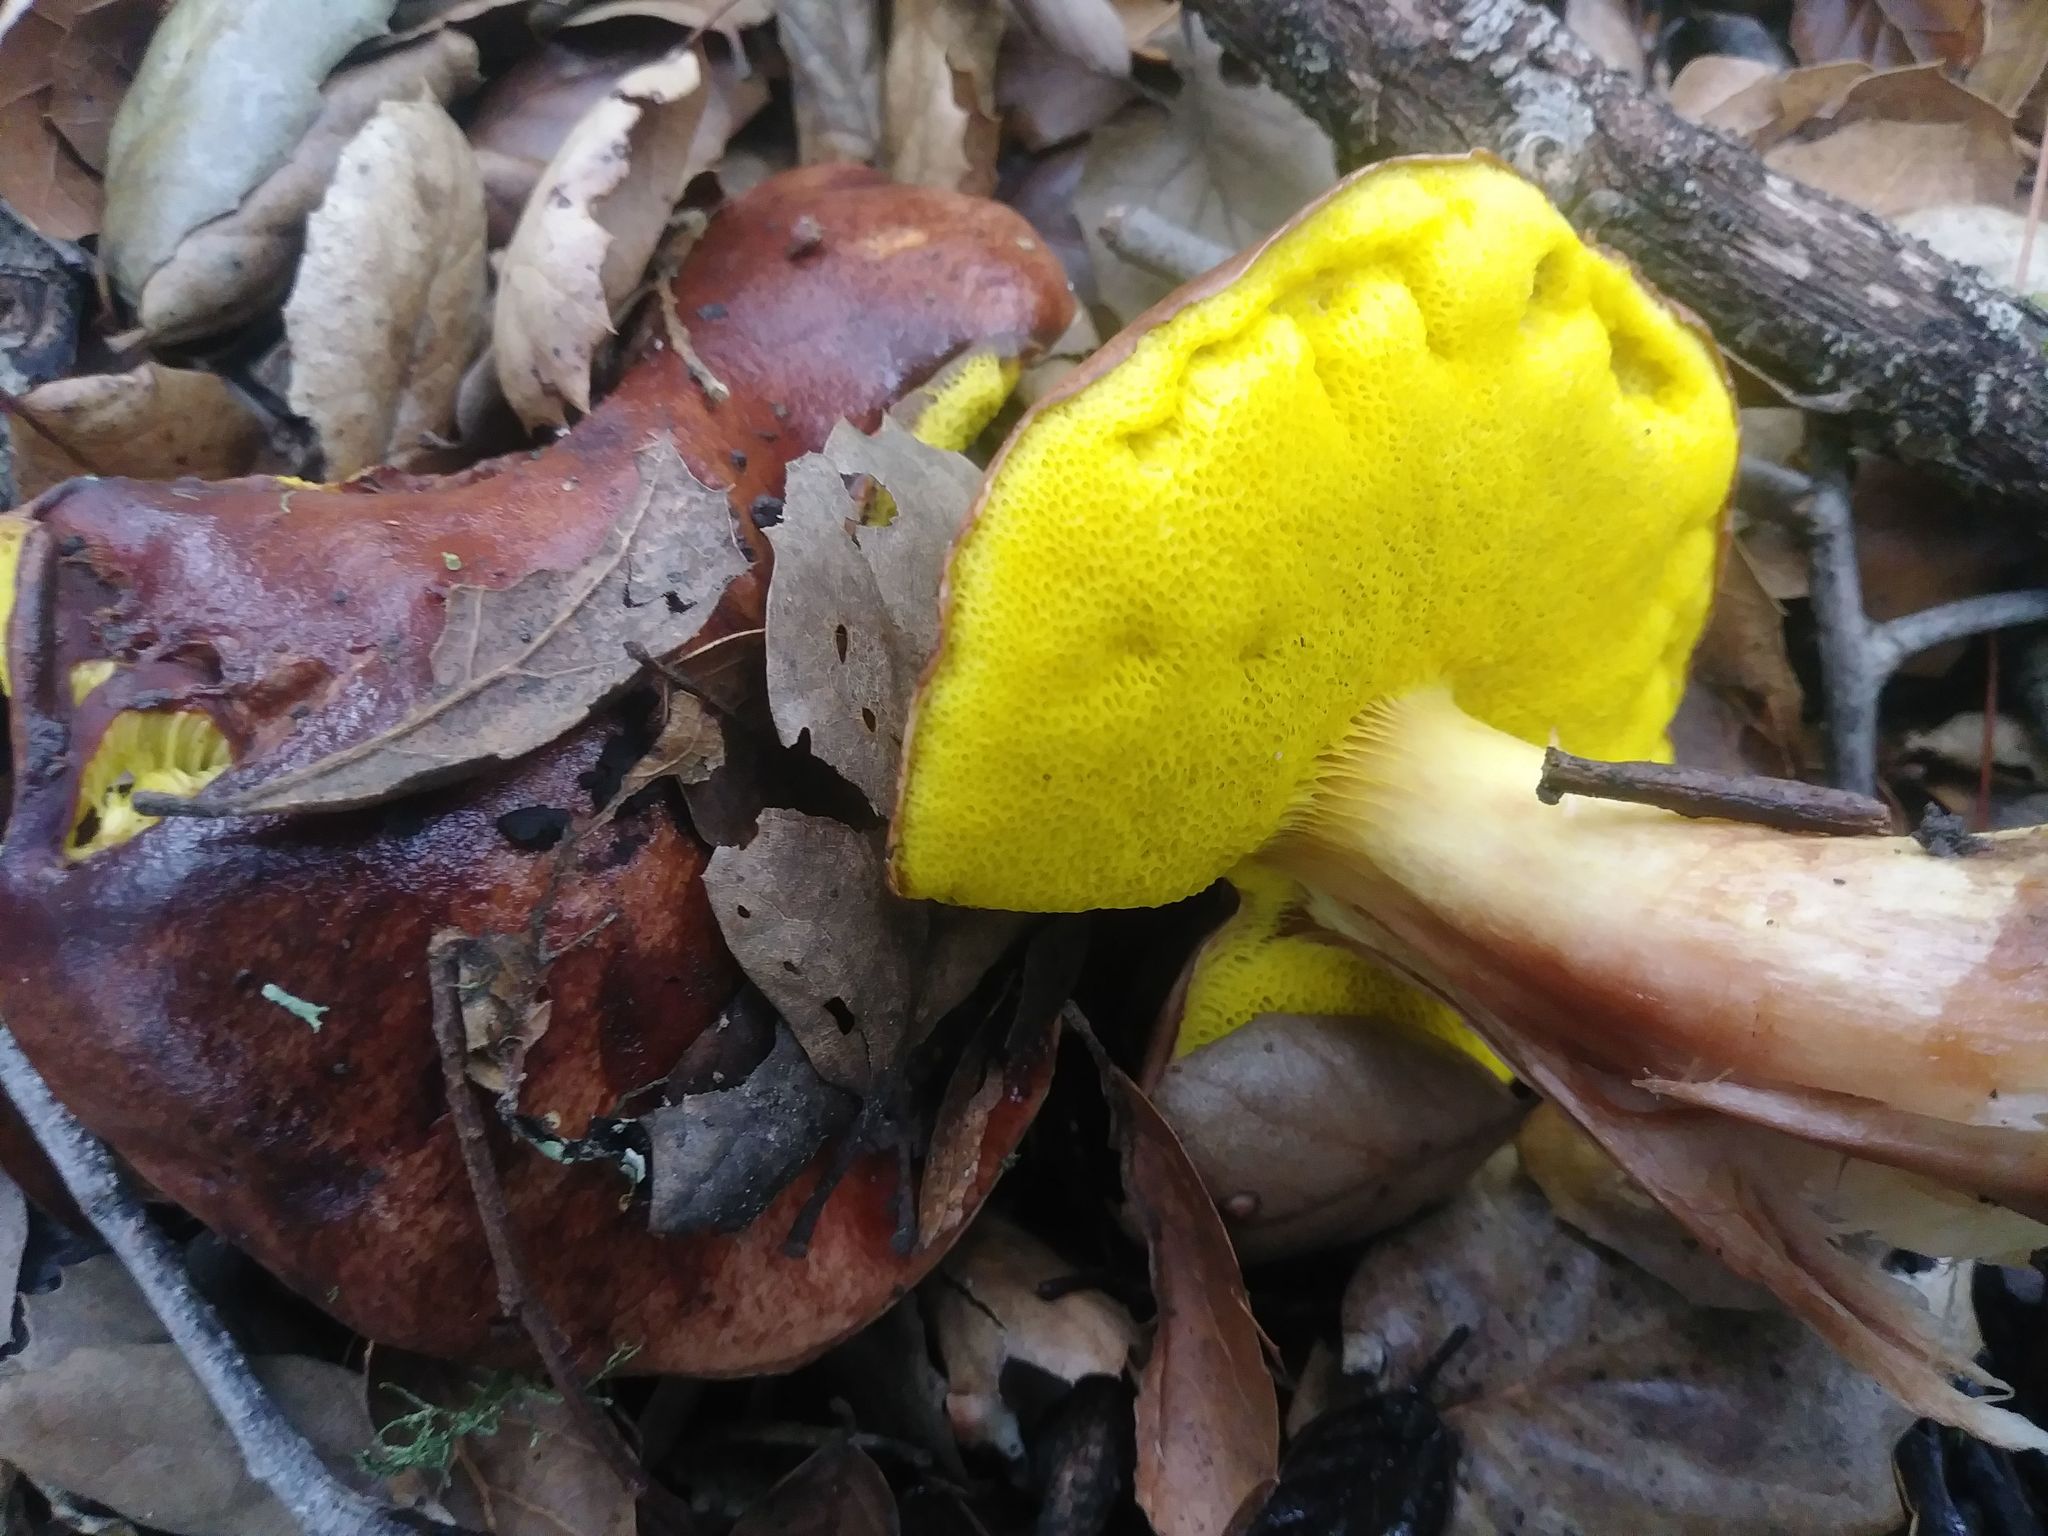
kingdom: Fungi
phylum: Basidiomycota
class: Agaricomycetes
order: Boletales
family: Boletaceae
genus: Aureoboletus
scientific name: Aureoboletus flaviporus
